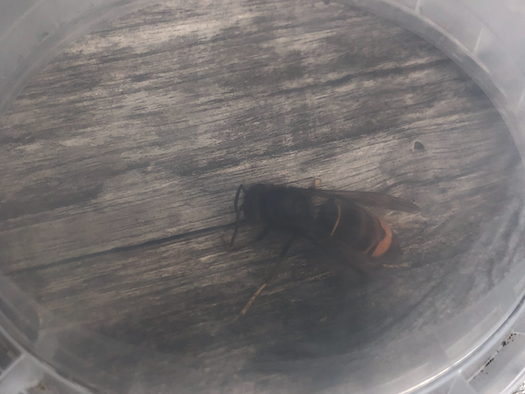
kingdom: Animalia
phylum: Arthropoda
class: Insecta
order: Hymenoptera
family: Vespidae
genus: Vespa
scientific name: Vespa velutina
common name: Asian hornet
